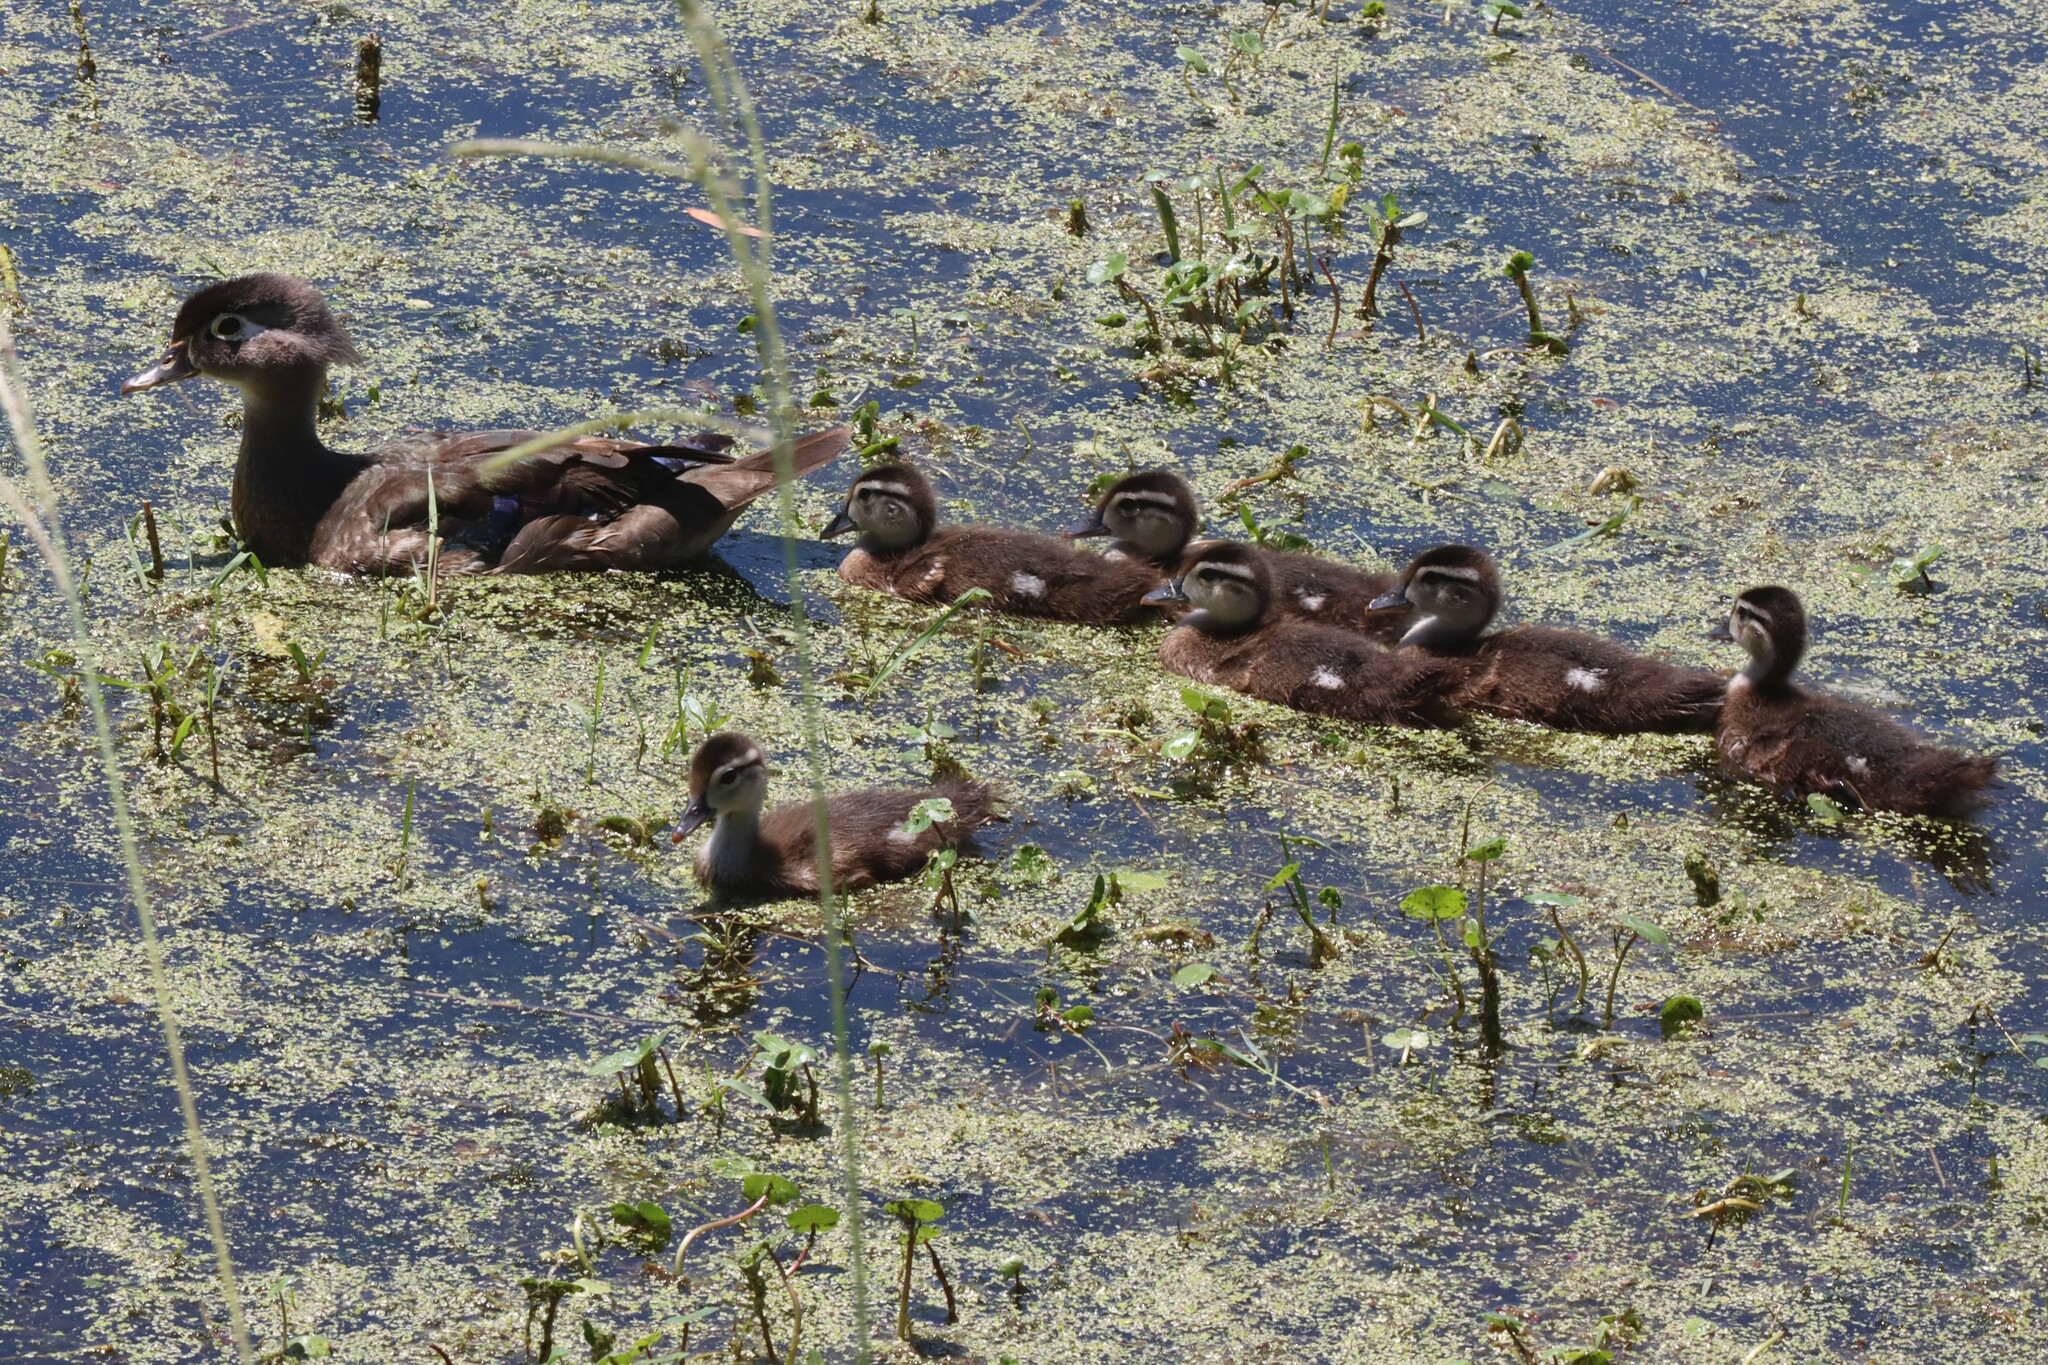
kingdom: Animalia
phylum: Chordata
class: Aves
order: Anseriformes
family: Anatidae
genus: Aix
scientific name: Aix sponsa
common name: Wood duck
